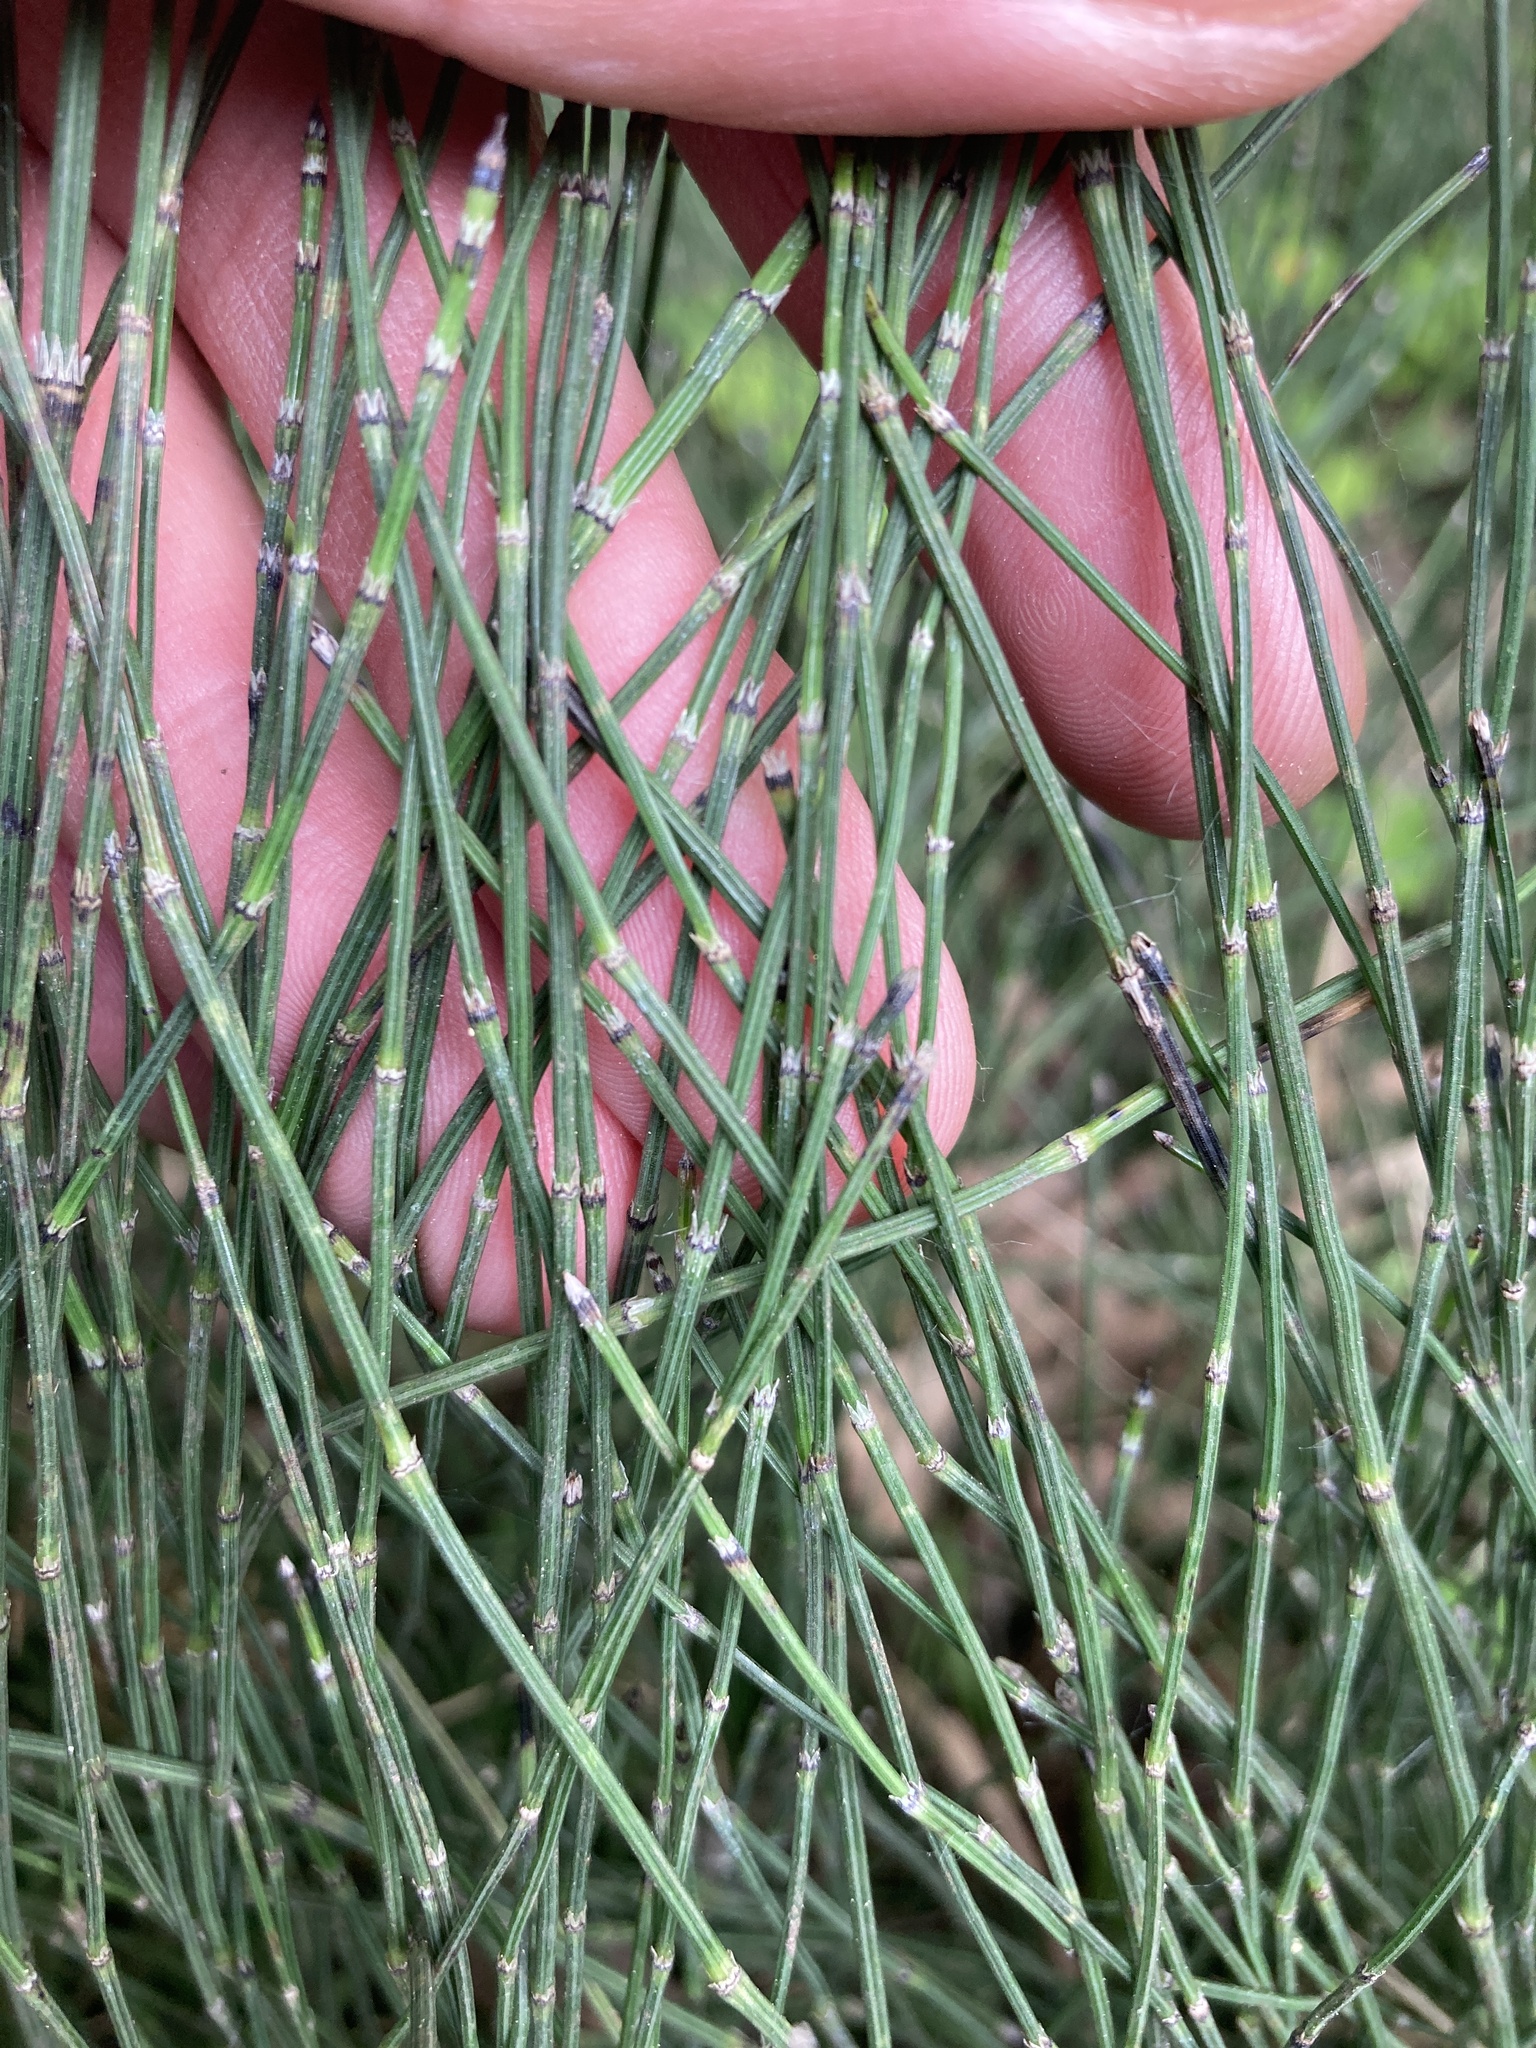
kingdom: Plantae
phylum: Tracheophyta
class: Polypodiopsida
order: Equisetales
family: Equisetaceae
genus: Equisetum
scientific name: Equisetum variegatum
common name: Variegated horsetail
